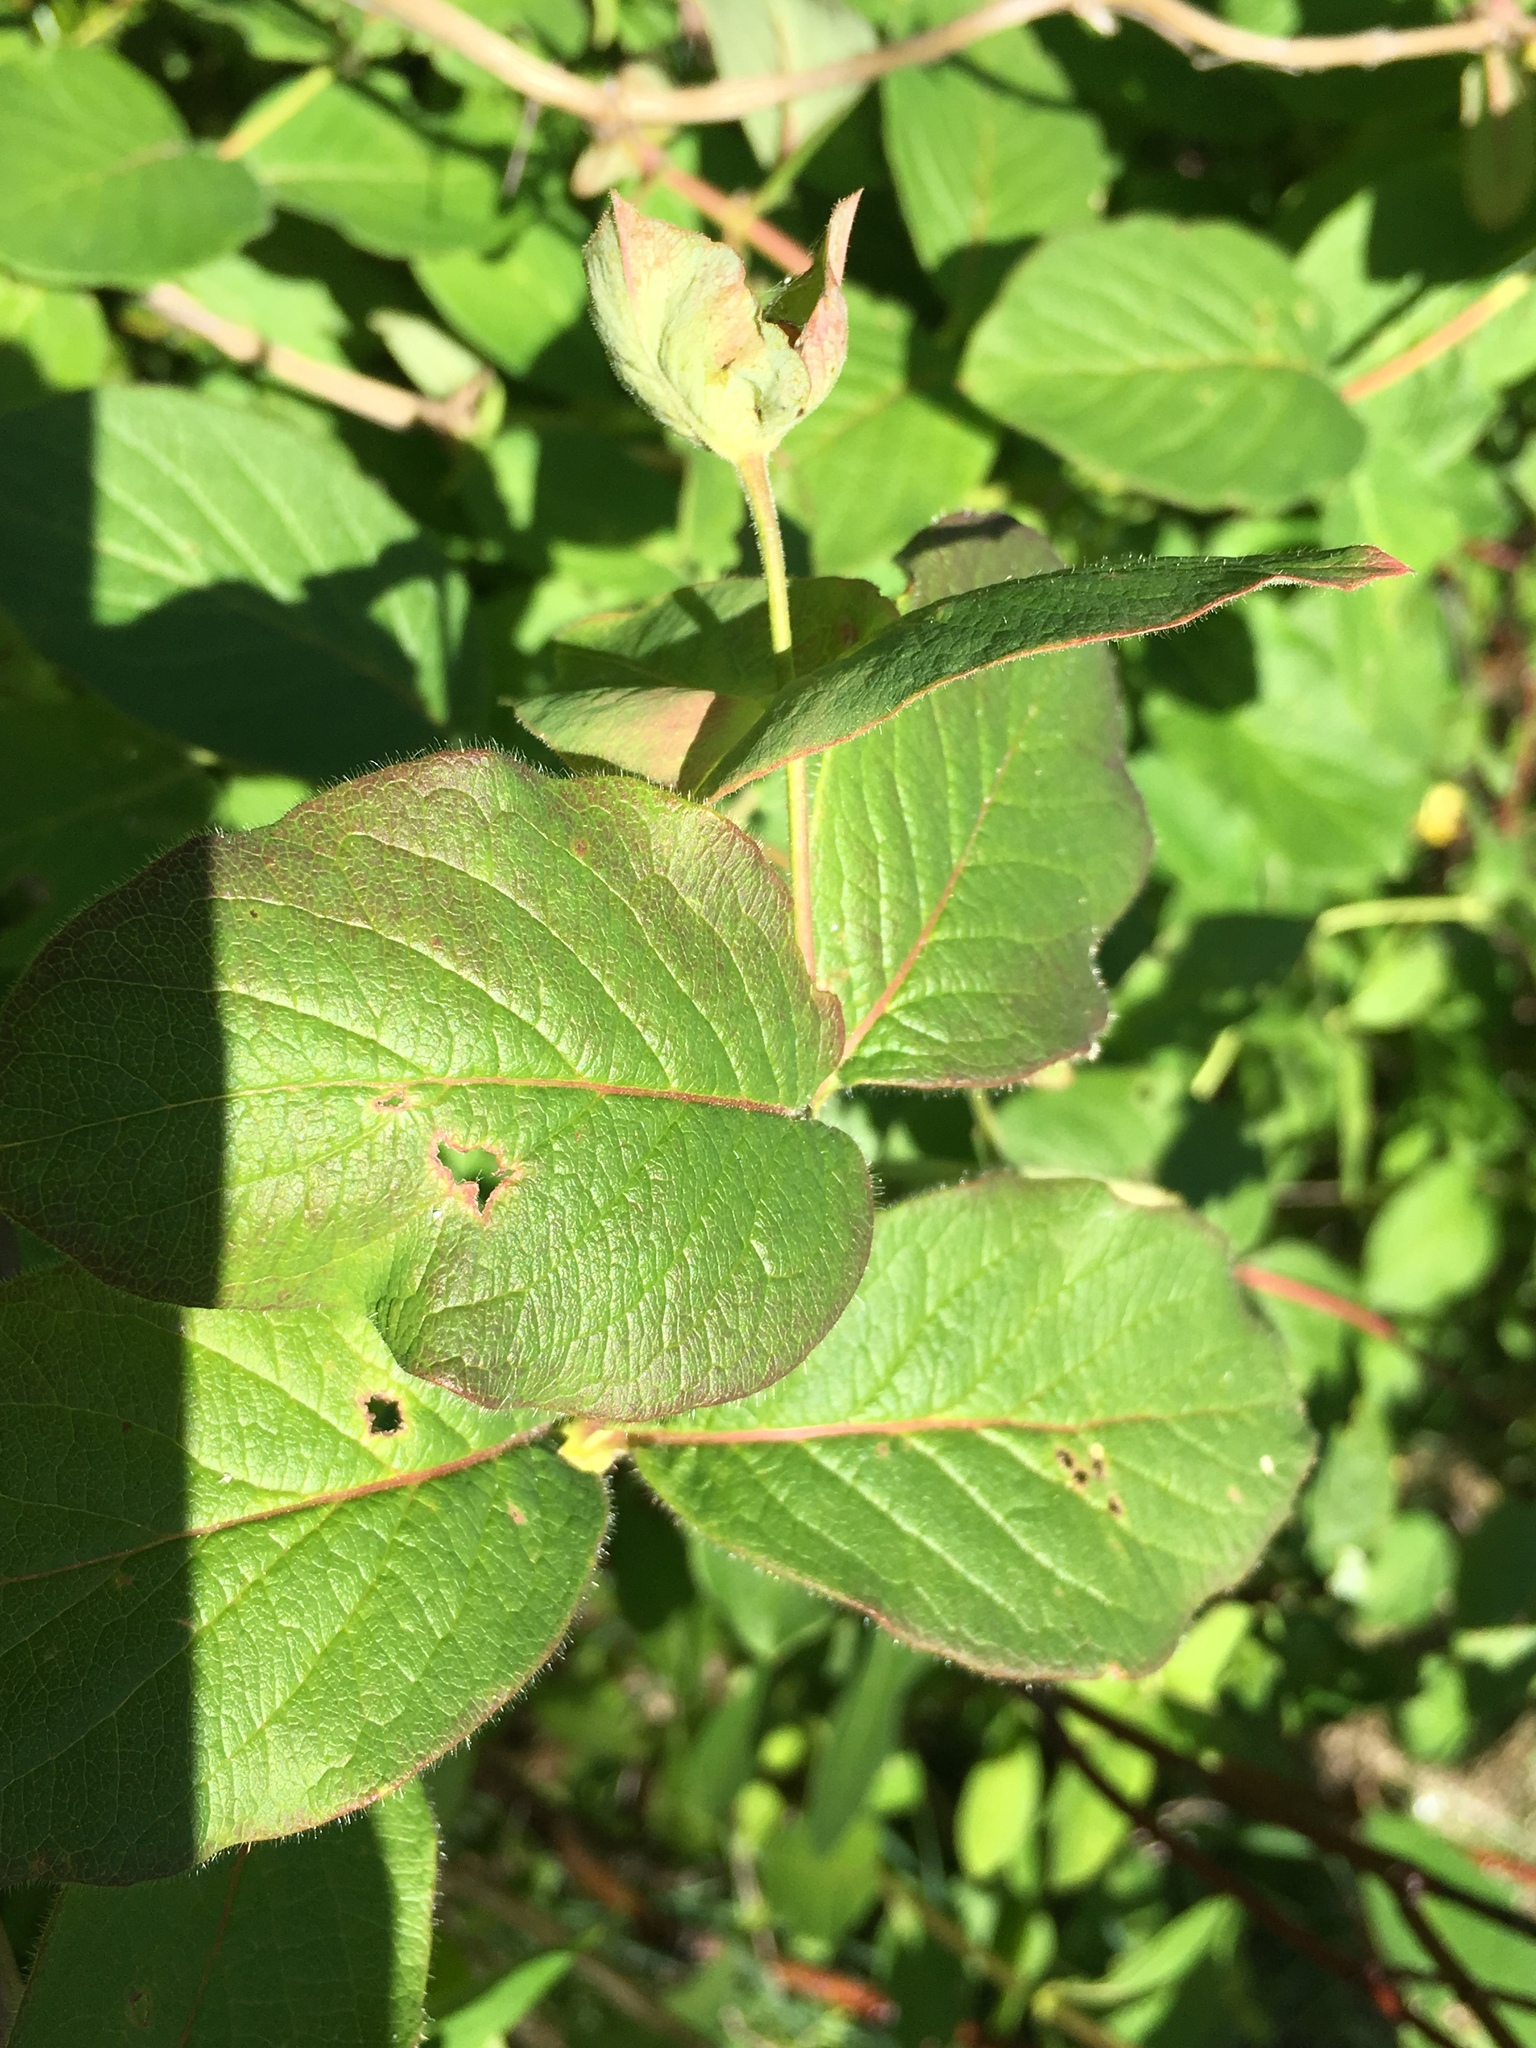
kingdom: Plantae
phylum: Tracheophyta
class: Magnoliopsida
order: Dipsacales
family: Caprifoliaceae
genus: Lonicera
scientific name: Lonicera hirsuta
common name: Hairy honeysuckle
